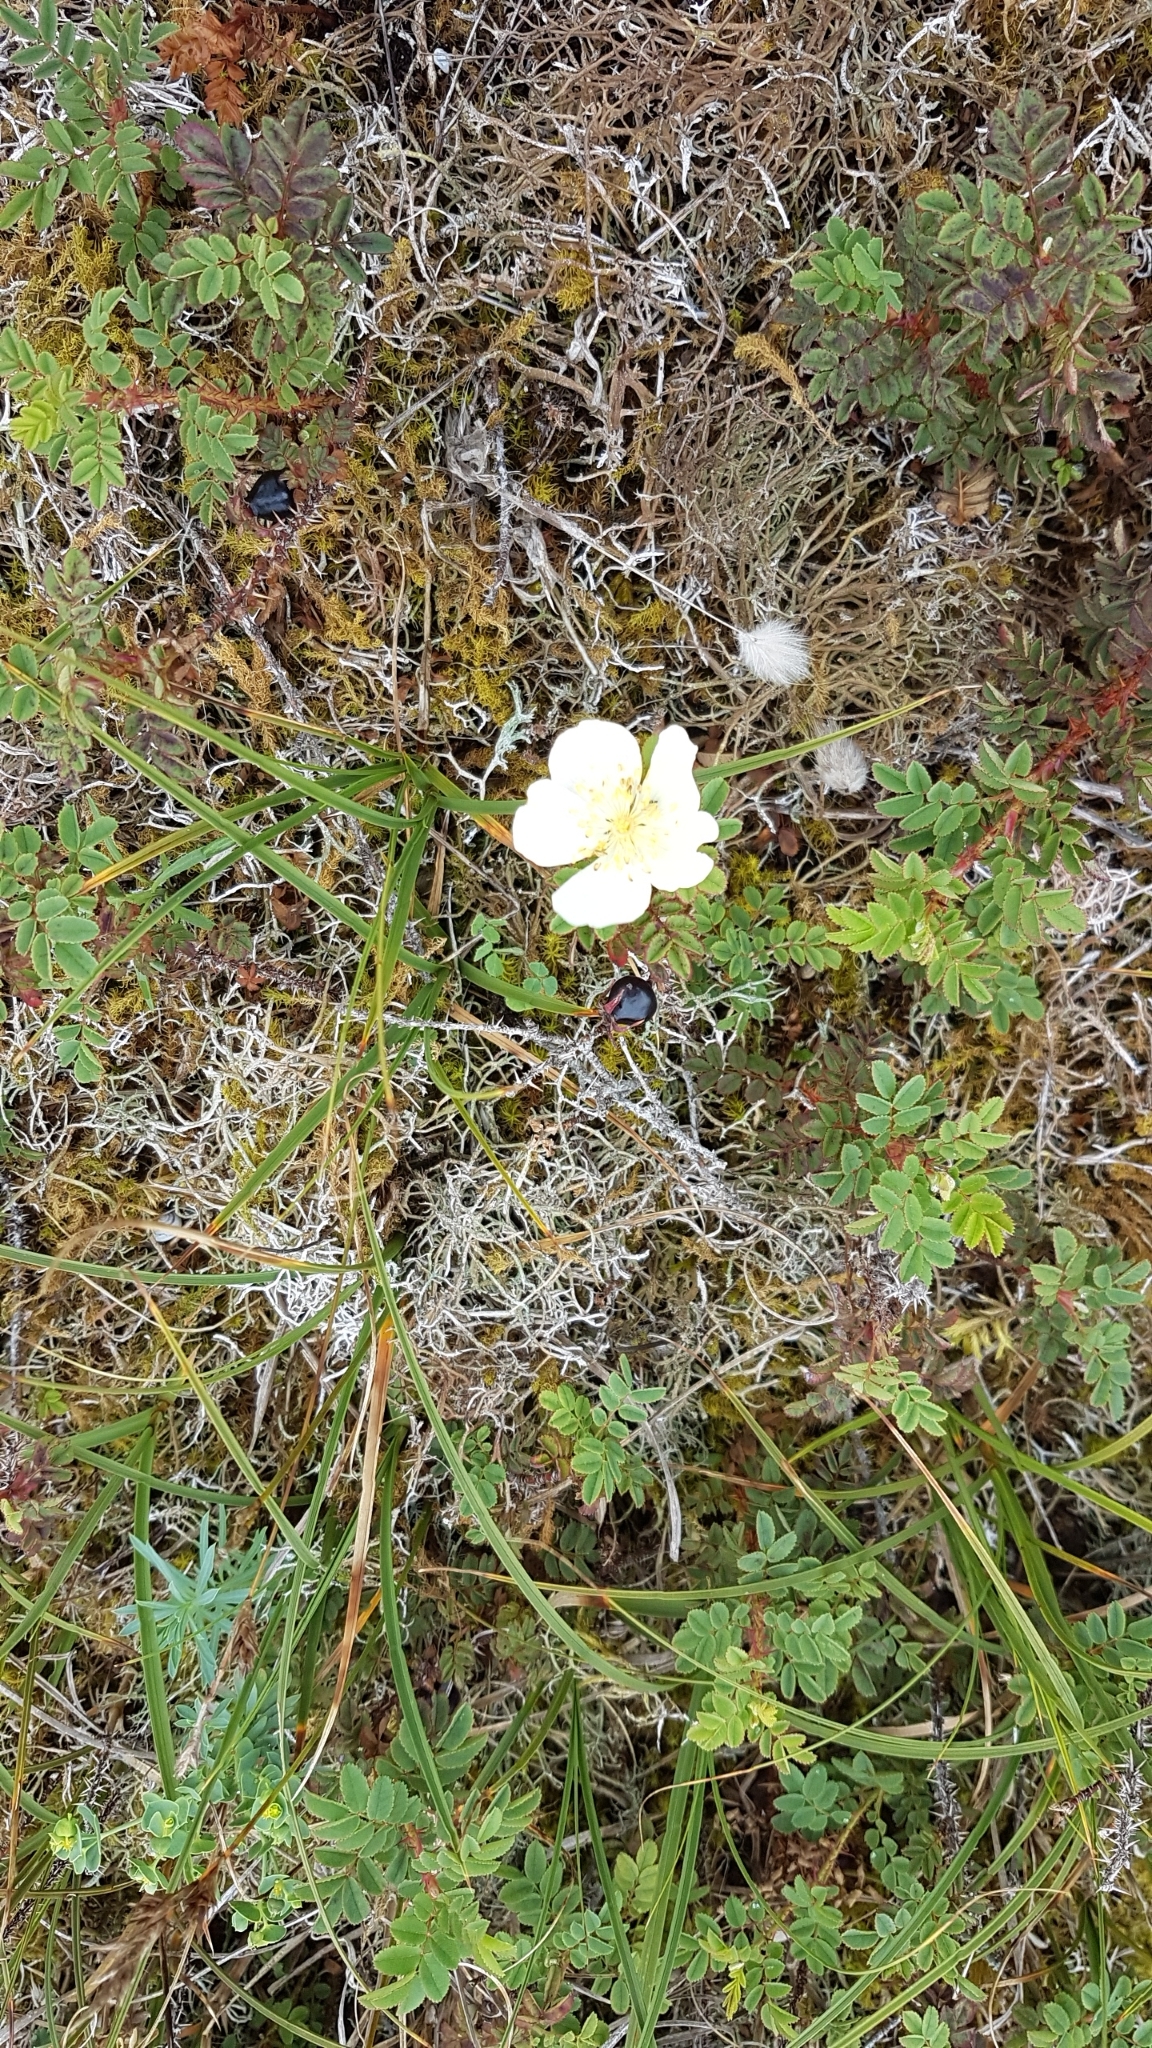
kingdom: Plantae
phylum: Tracheophyta
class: Magnoliopsida
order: Rosales
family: Rosaceae
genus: Rosa
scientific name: Rosa spinosissima
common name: Burnet rose
